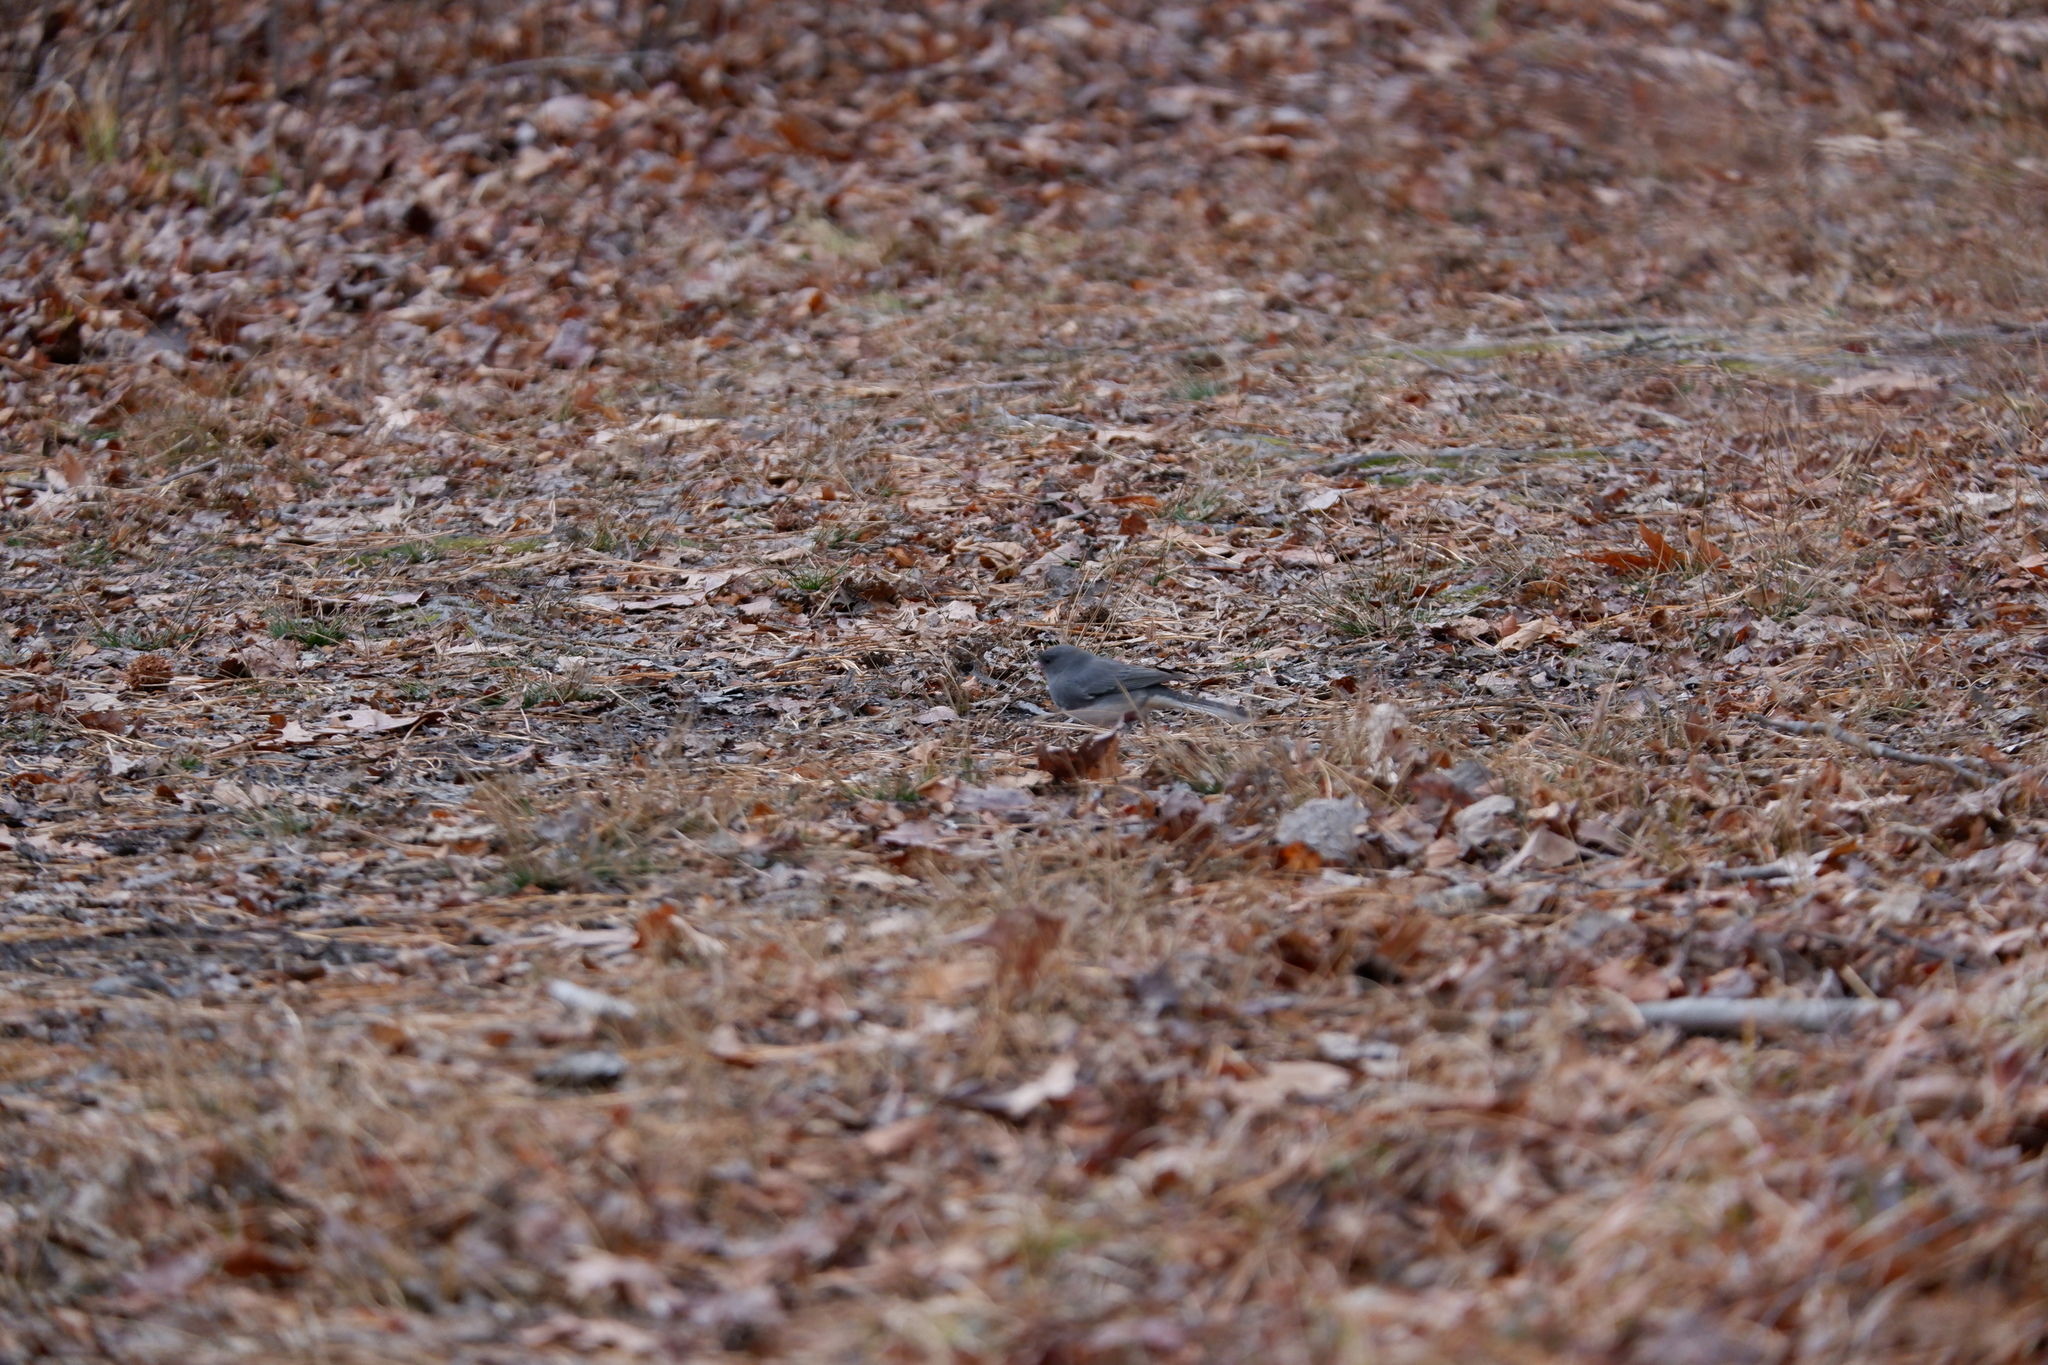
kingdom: Animalia
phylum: Chordata
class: Aves
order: Passeriformes
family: Passerellidae
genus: Junco
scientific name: Junco hyemalis
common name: Dark-eyed junco
